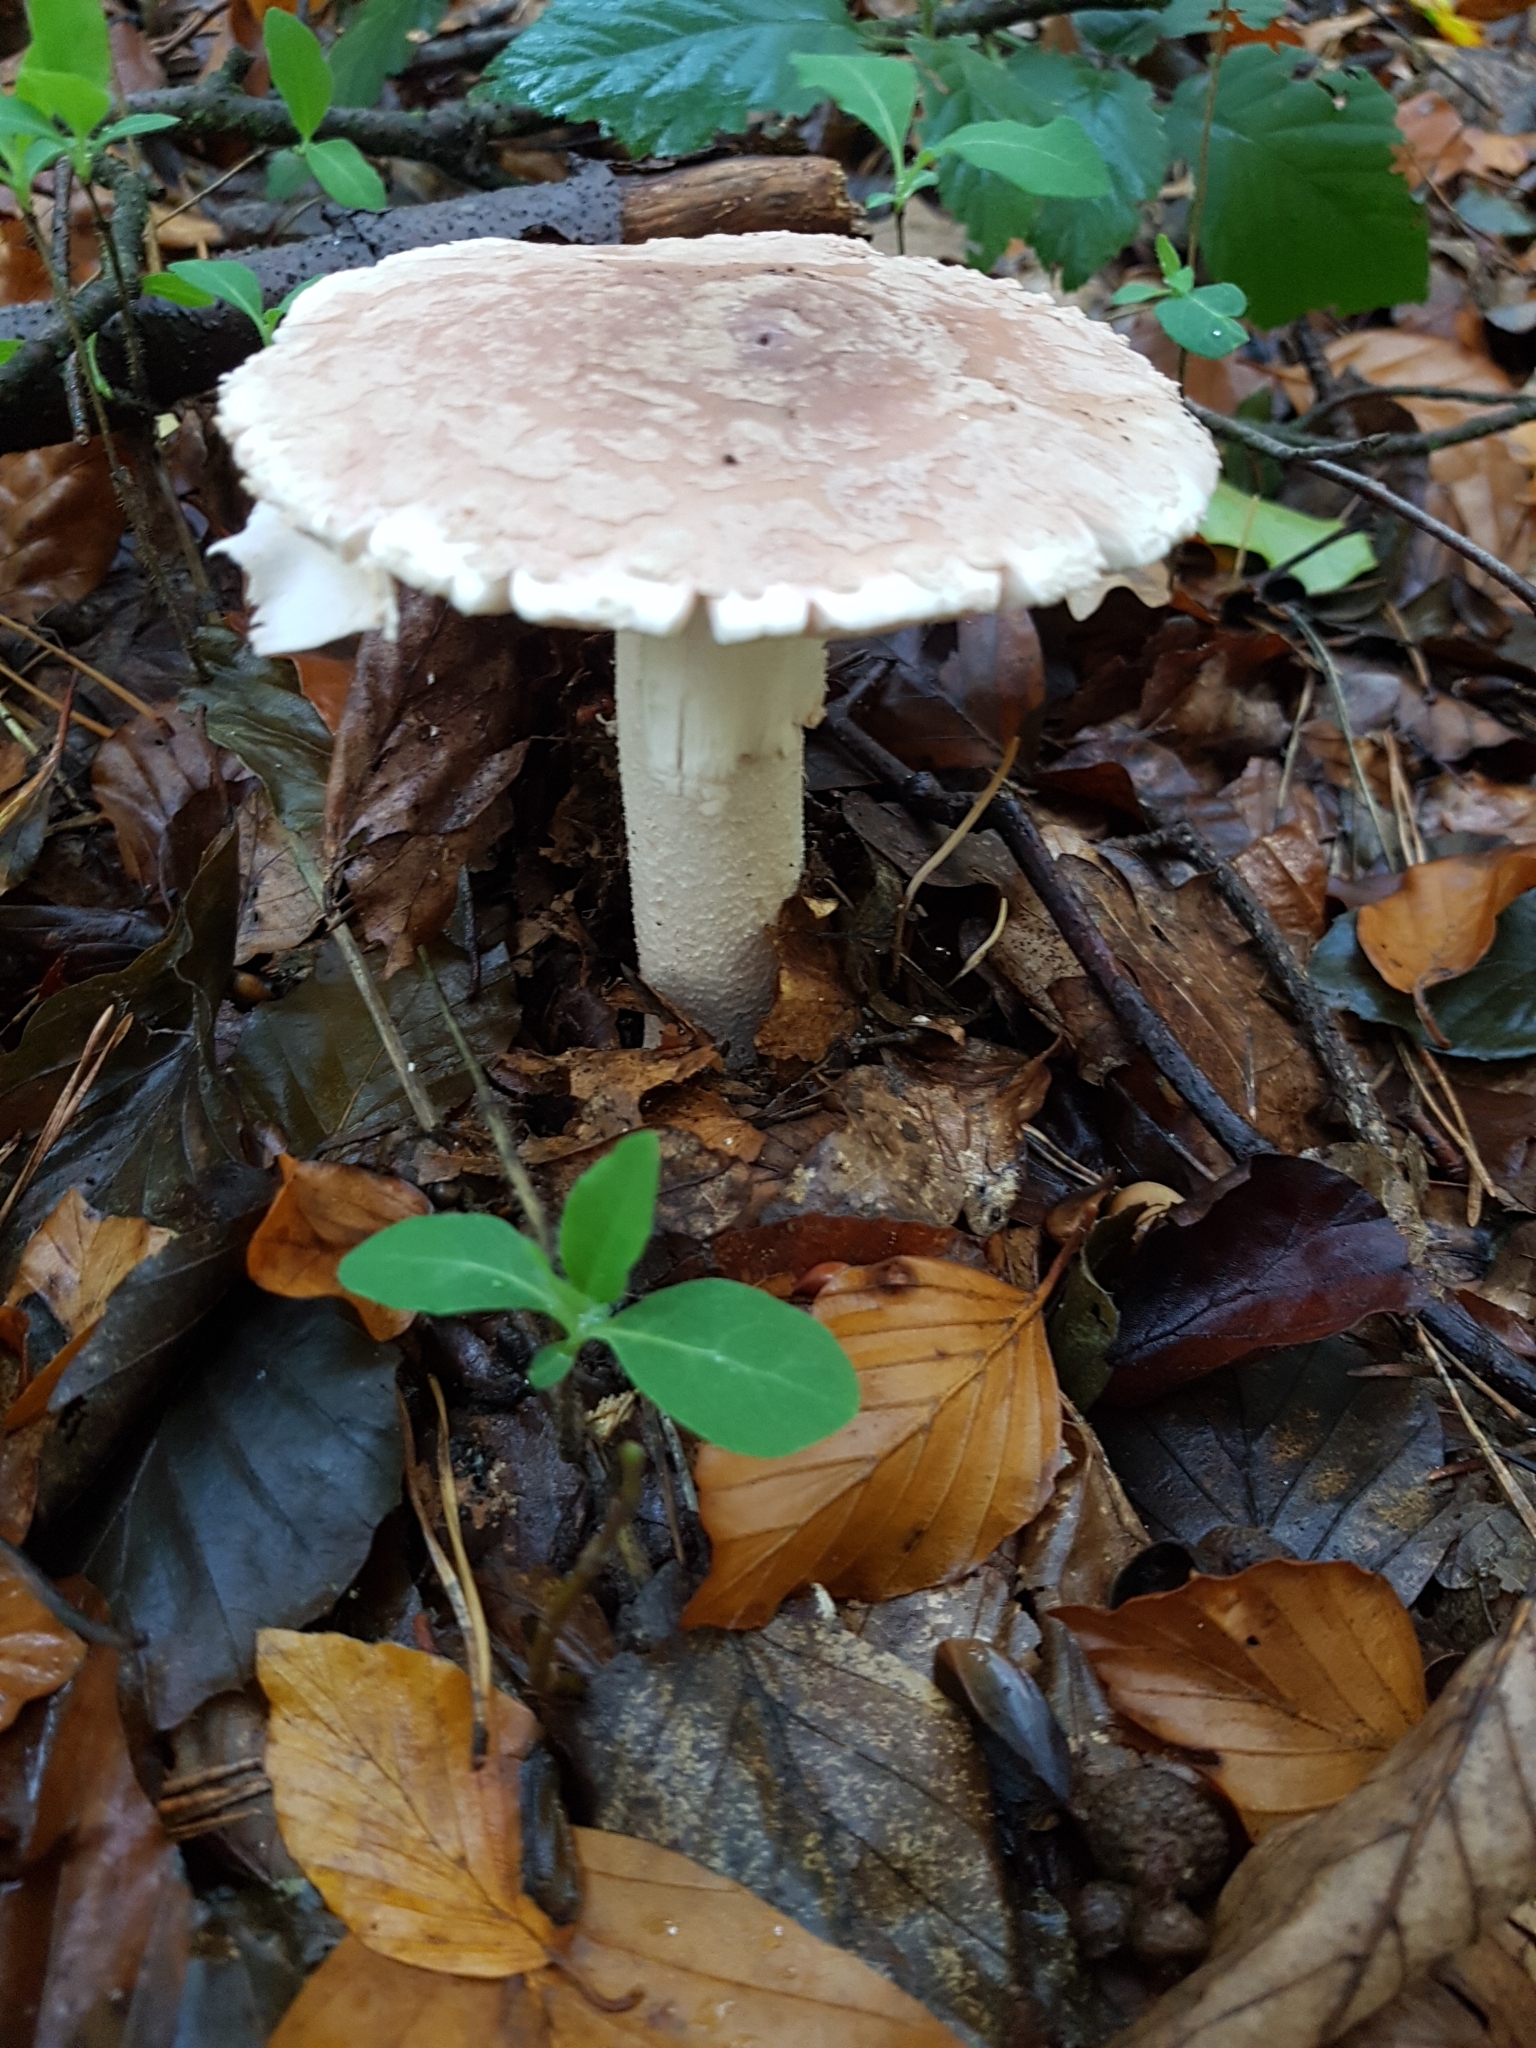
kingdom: Fungi
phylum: Basidiomycota
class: Agaricomycetes
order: Agaricales
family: Amanitaceae
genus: Amanita
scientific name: Amanita rubescens
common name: Blusher
